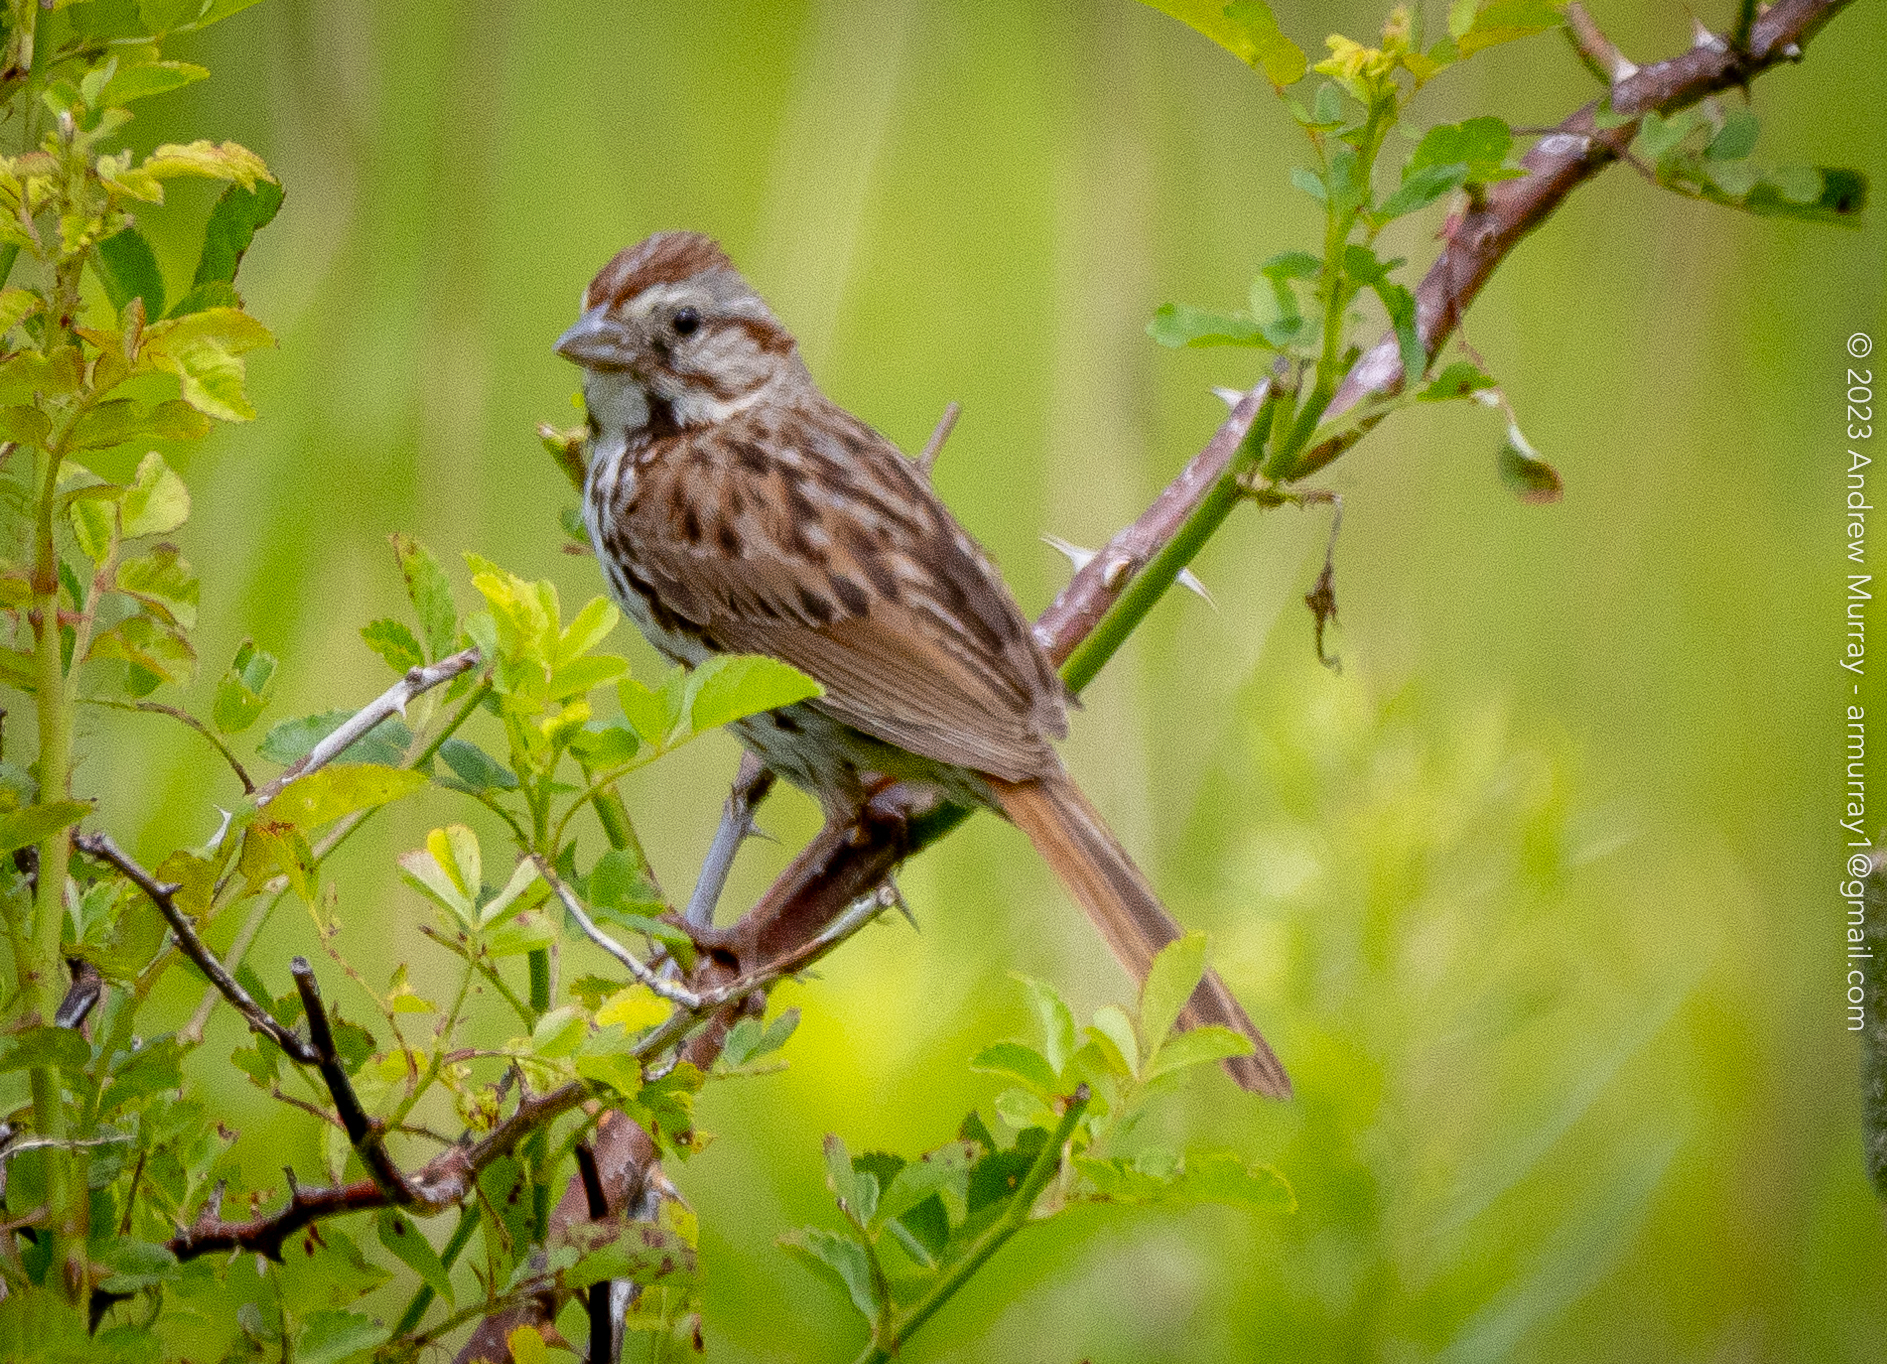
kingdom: Animalia
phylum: Chordata
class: Aves
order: Passeriformes
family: Passerellidae
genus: Melospiza
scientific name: Melospiza melodia
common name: Song sparrow
